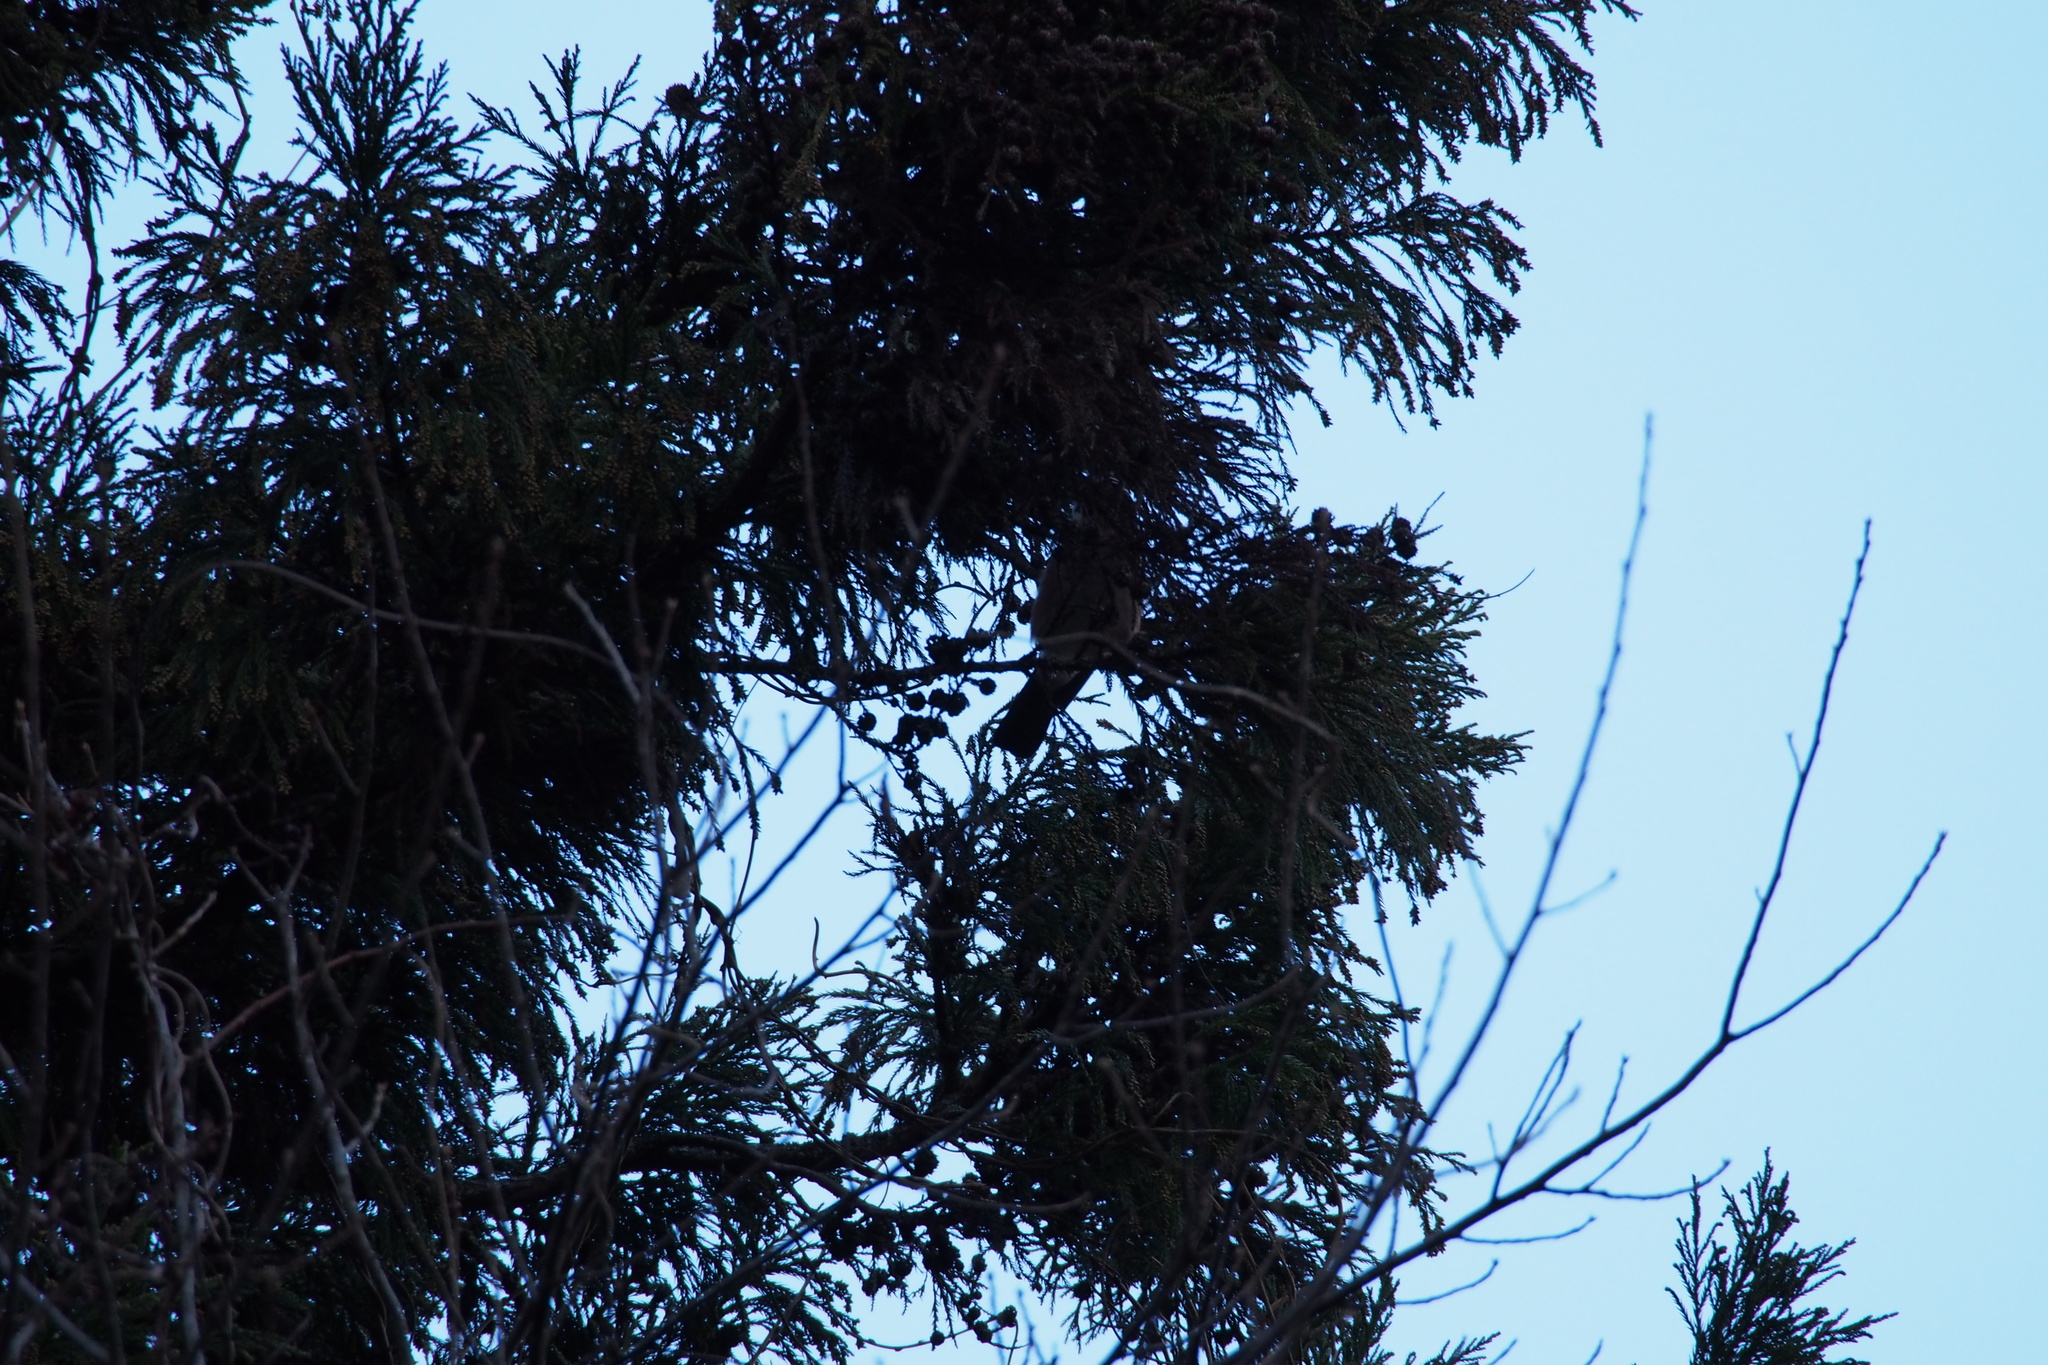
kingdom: Animalia
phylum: Chordata
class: Aves
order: Passeriformes
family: Corvidae
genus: Garrulus
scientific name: Garrulus glandarius
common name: Eurasian jay
